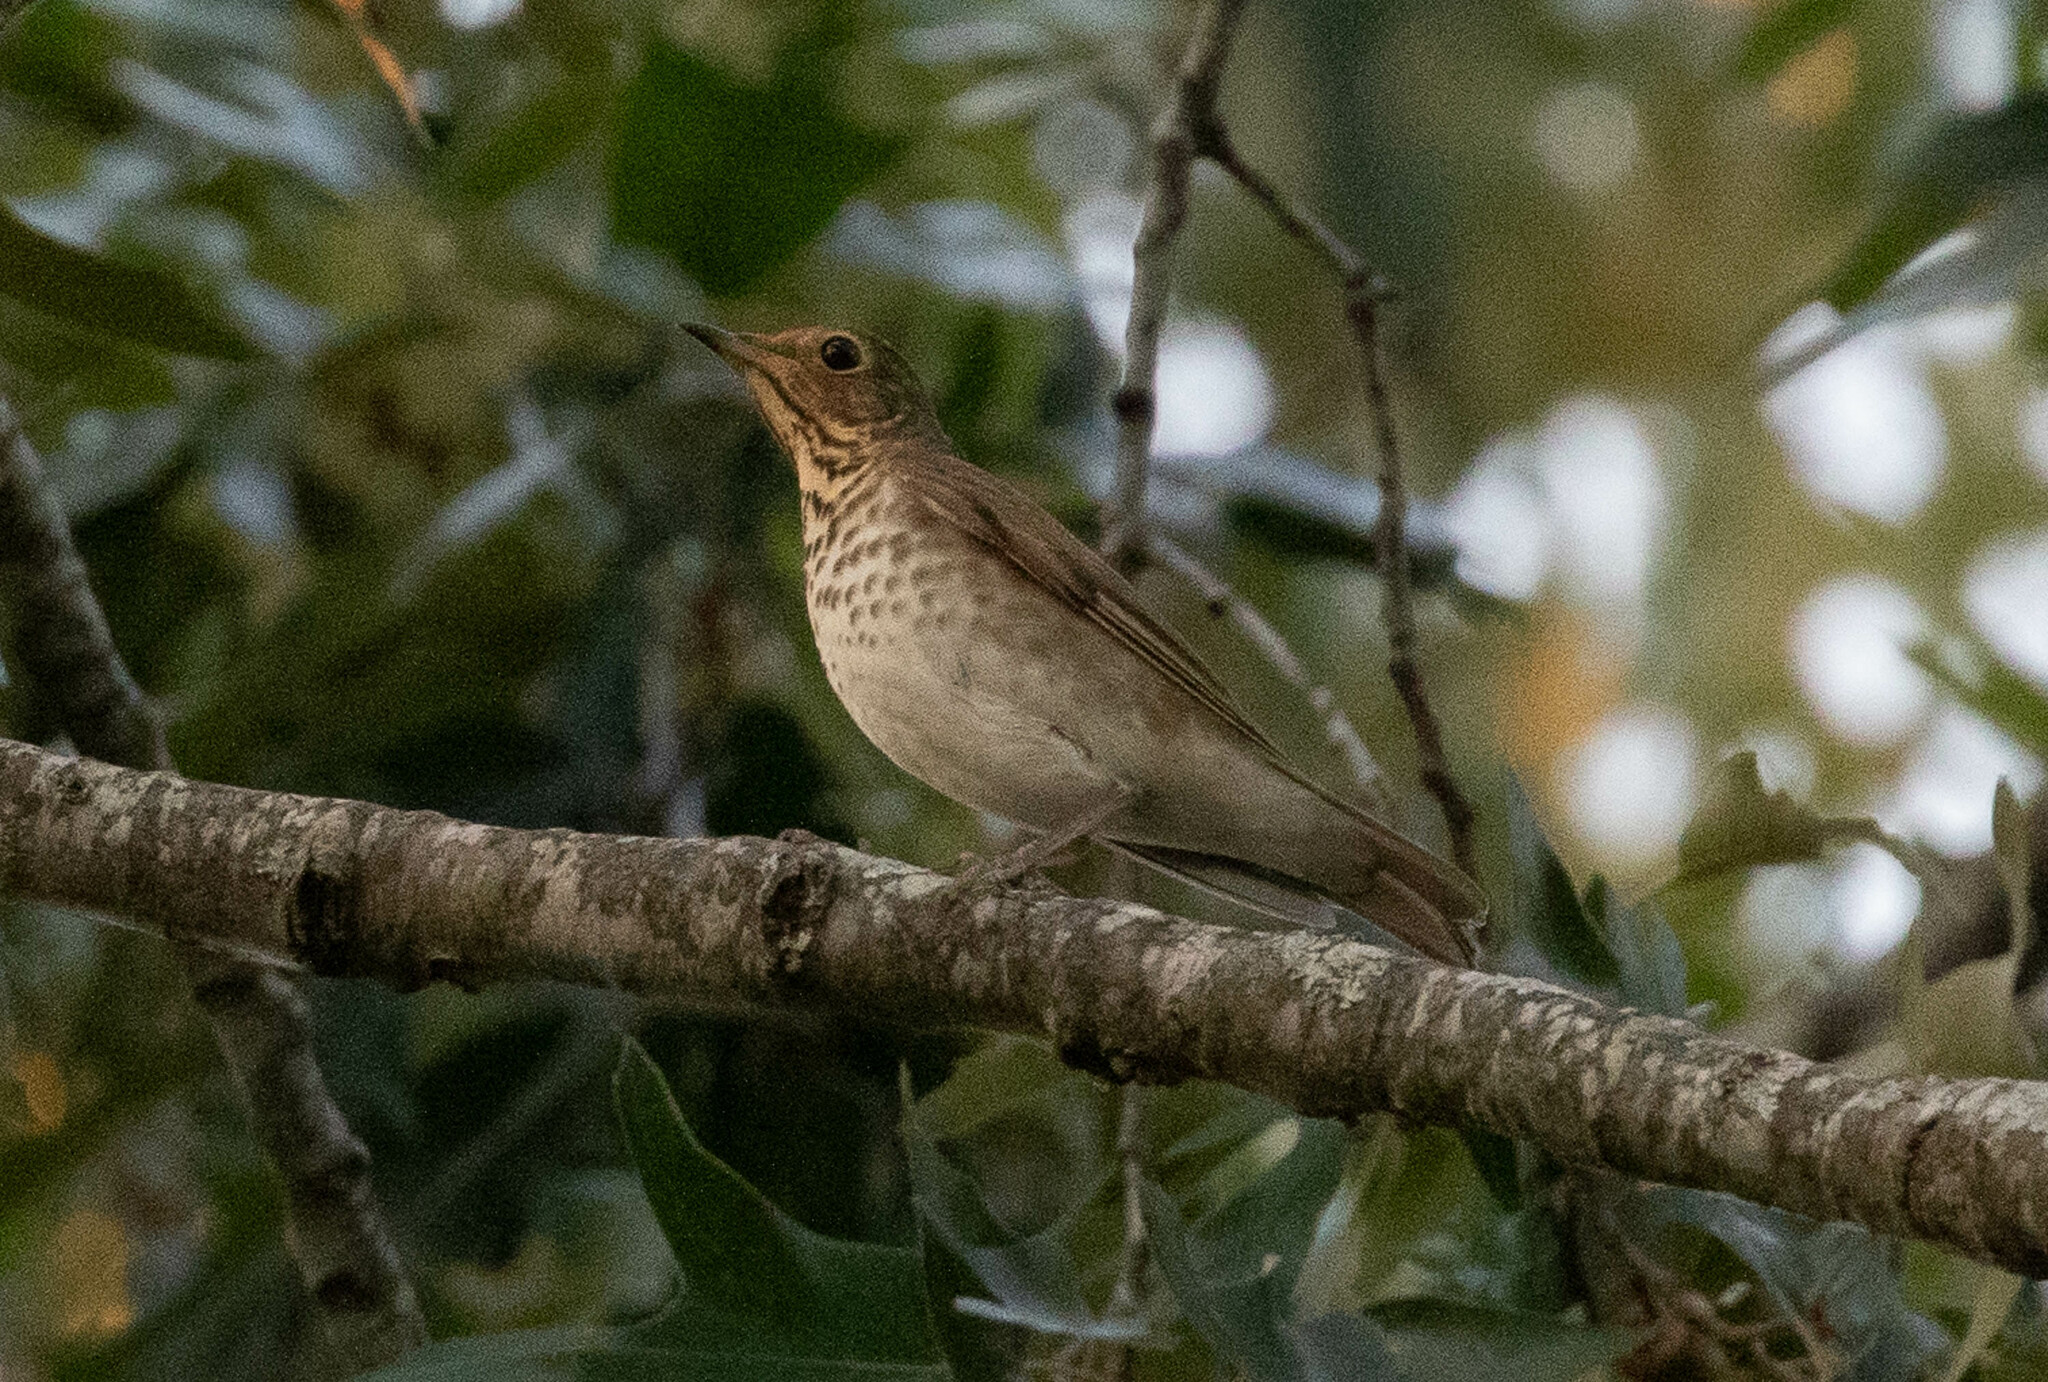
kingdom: Animalia
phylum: Chordata
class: Aves
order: Passeriformes
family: Turdidae
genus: Catharus
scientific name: Catharus ustulatus
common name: Swainson's thrush
